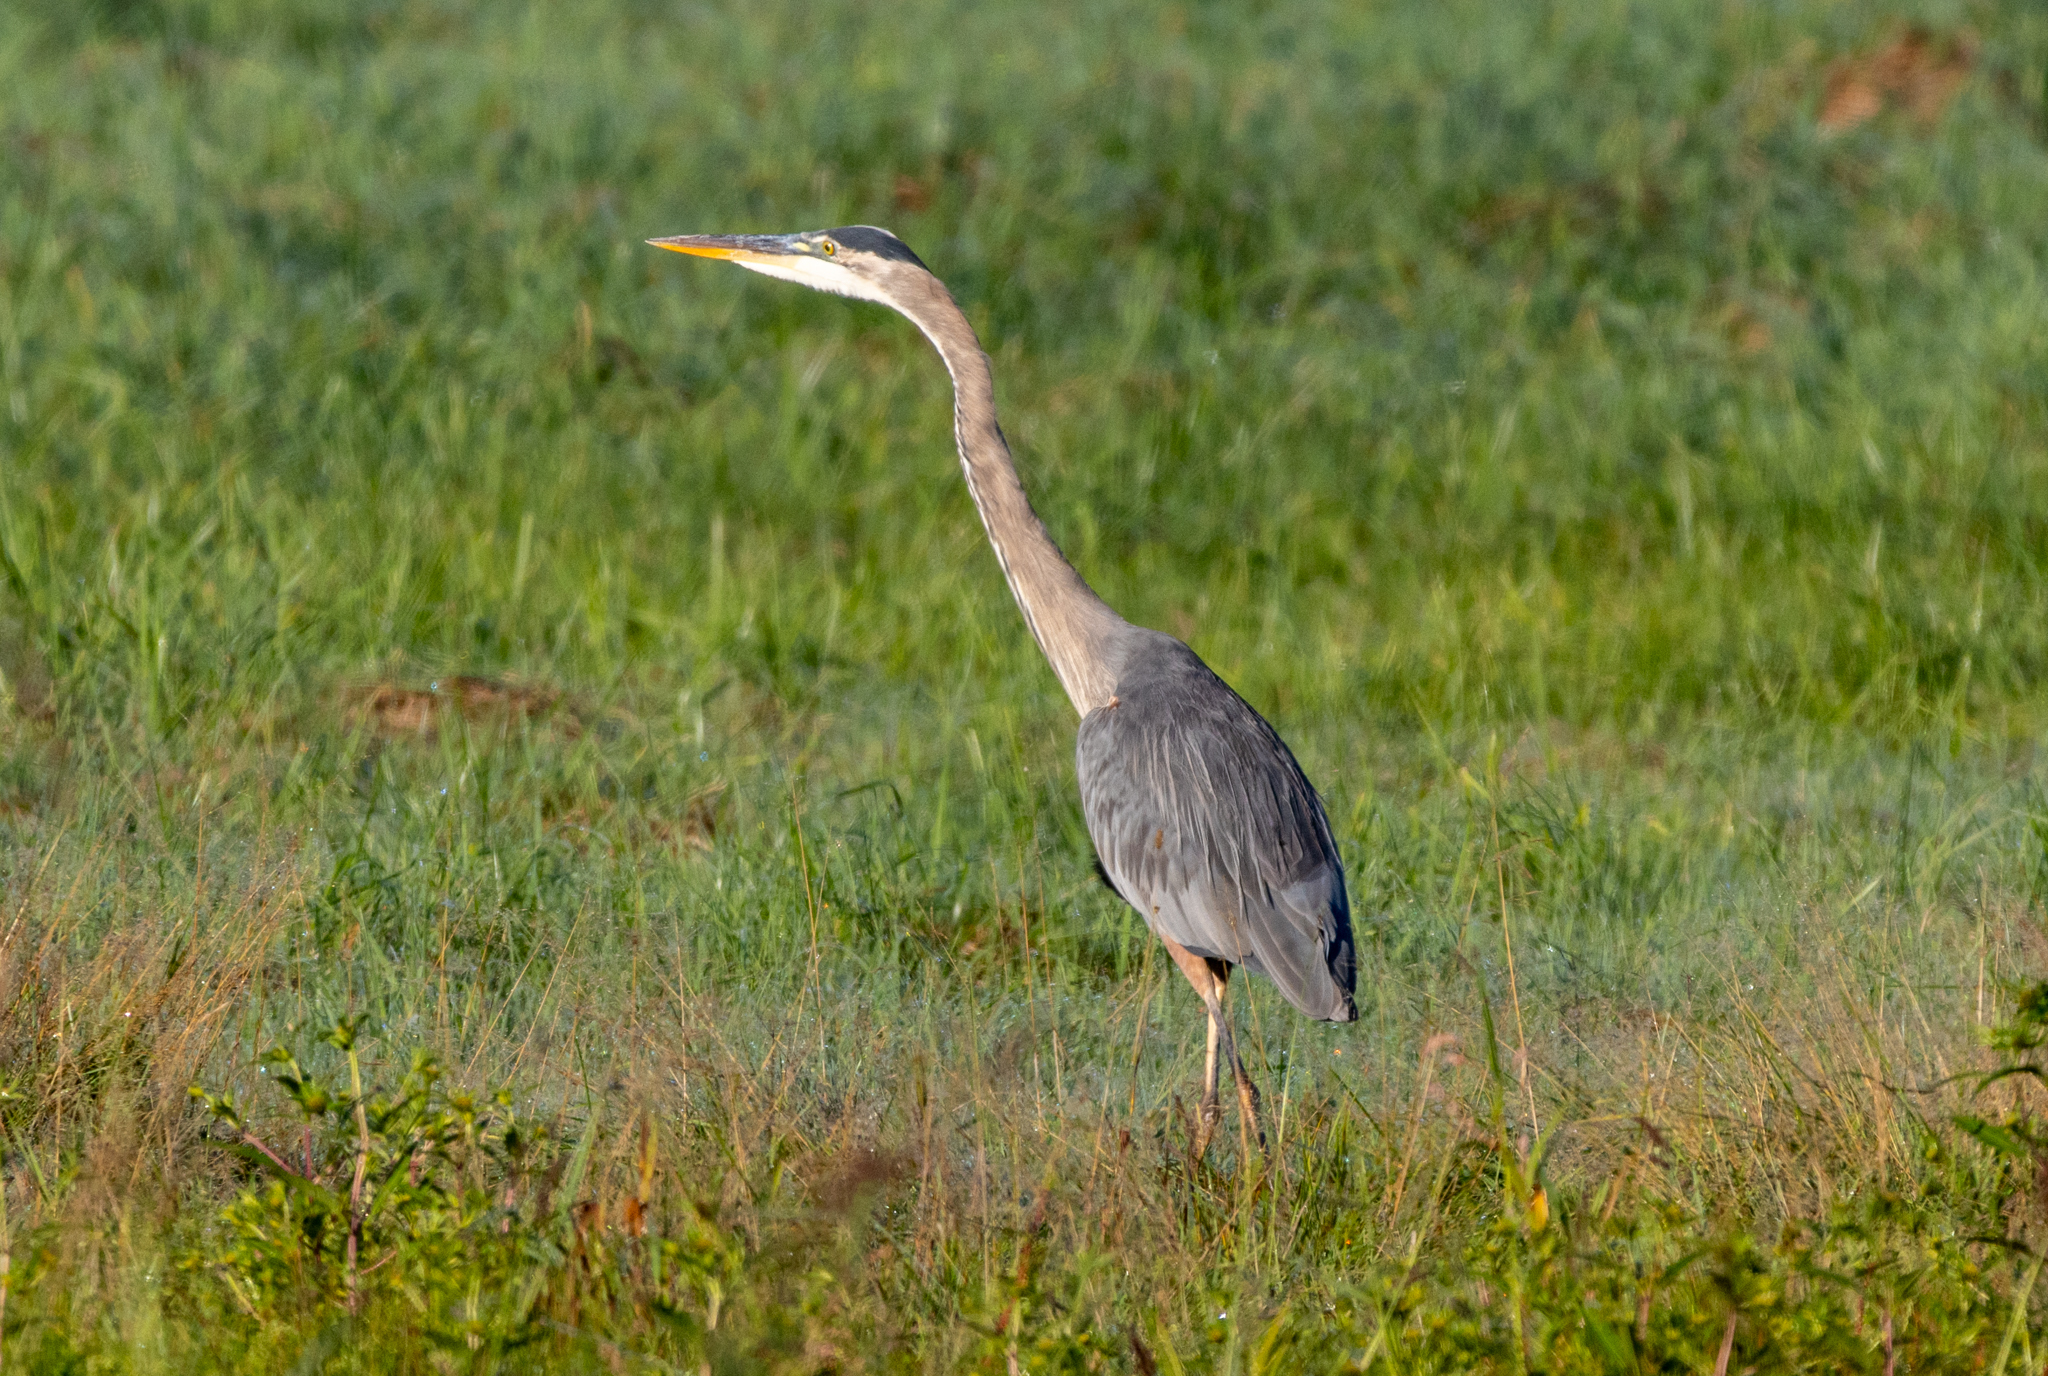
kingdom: Animalia
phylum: Chordata
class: Aves
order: Pelecaniformes
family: Ardeidae
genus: Ardea
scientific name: Ardea herodias
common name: Great blue heron
